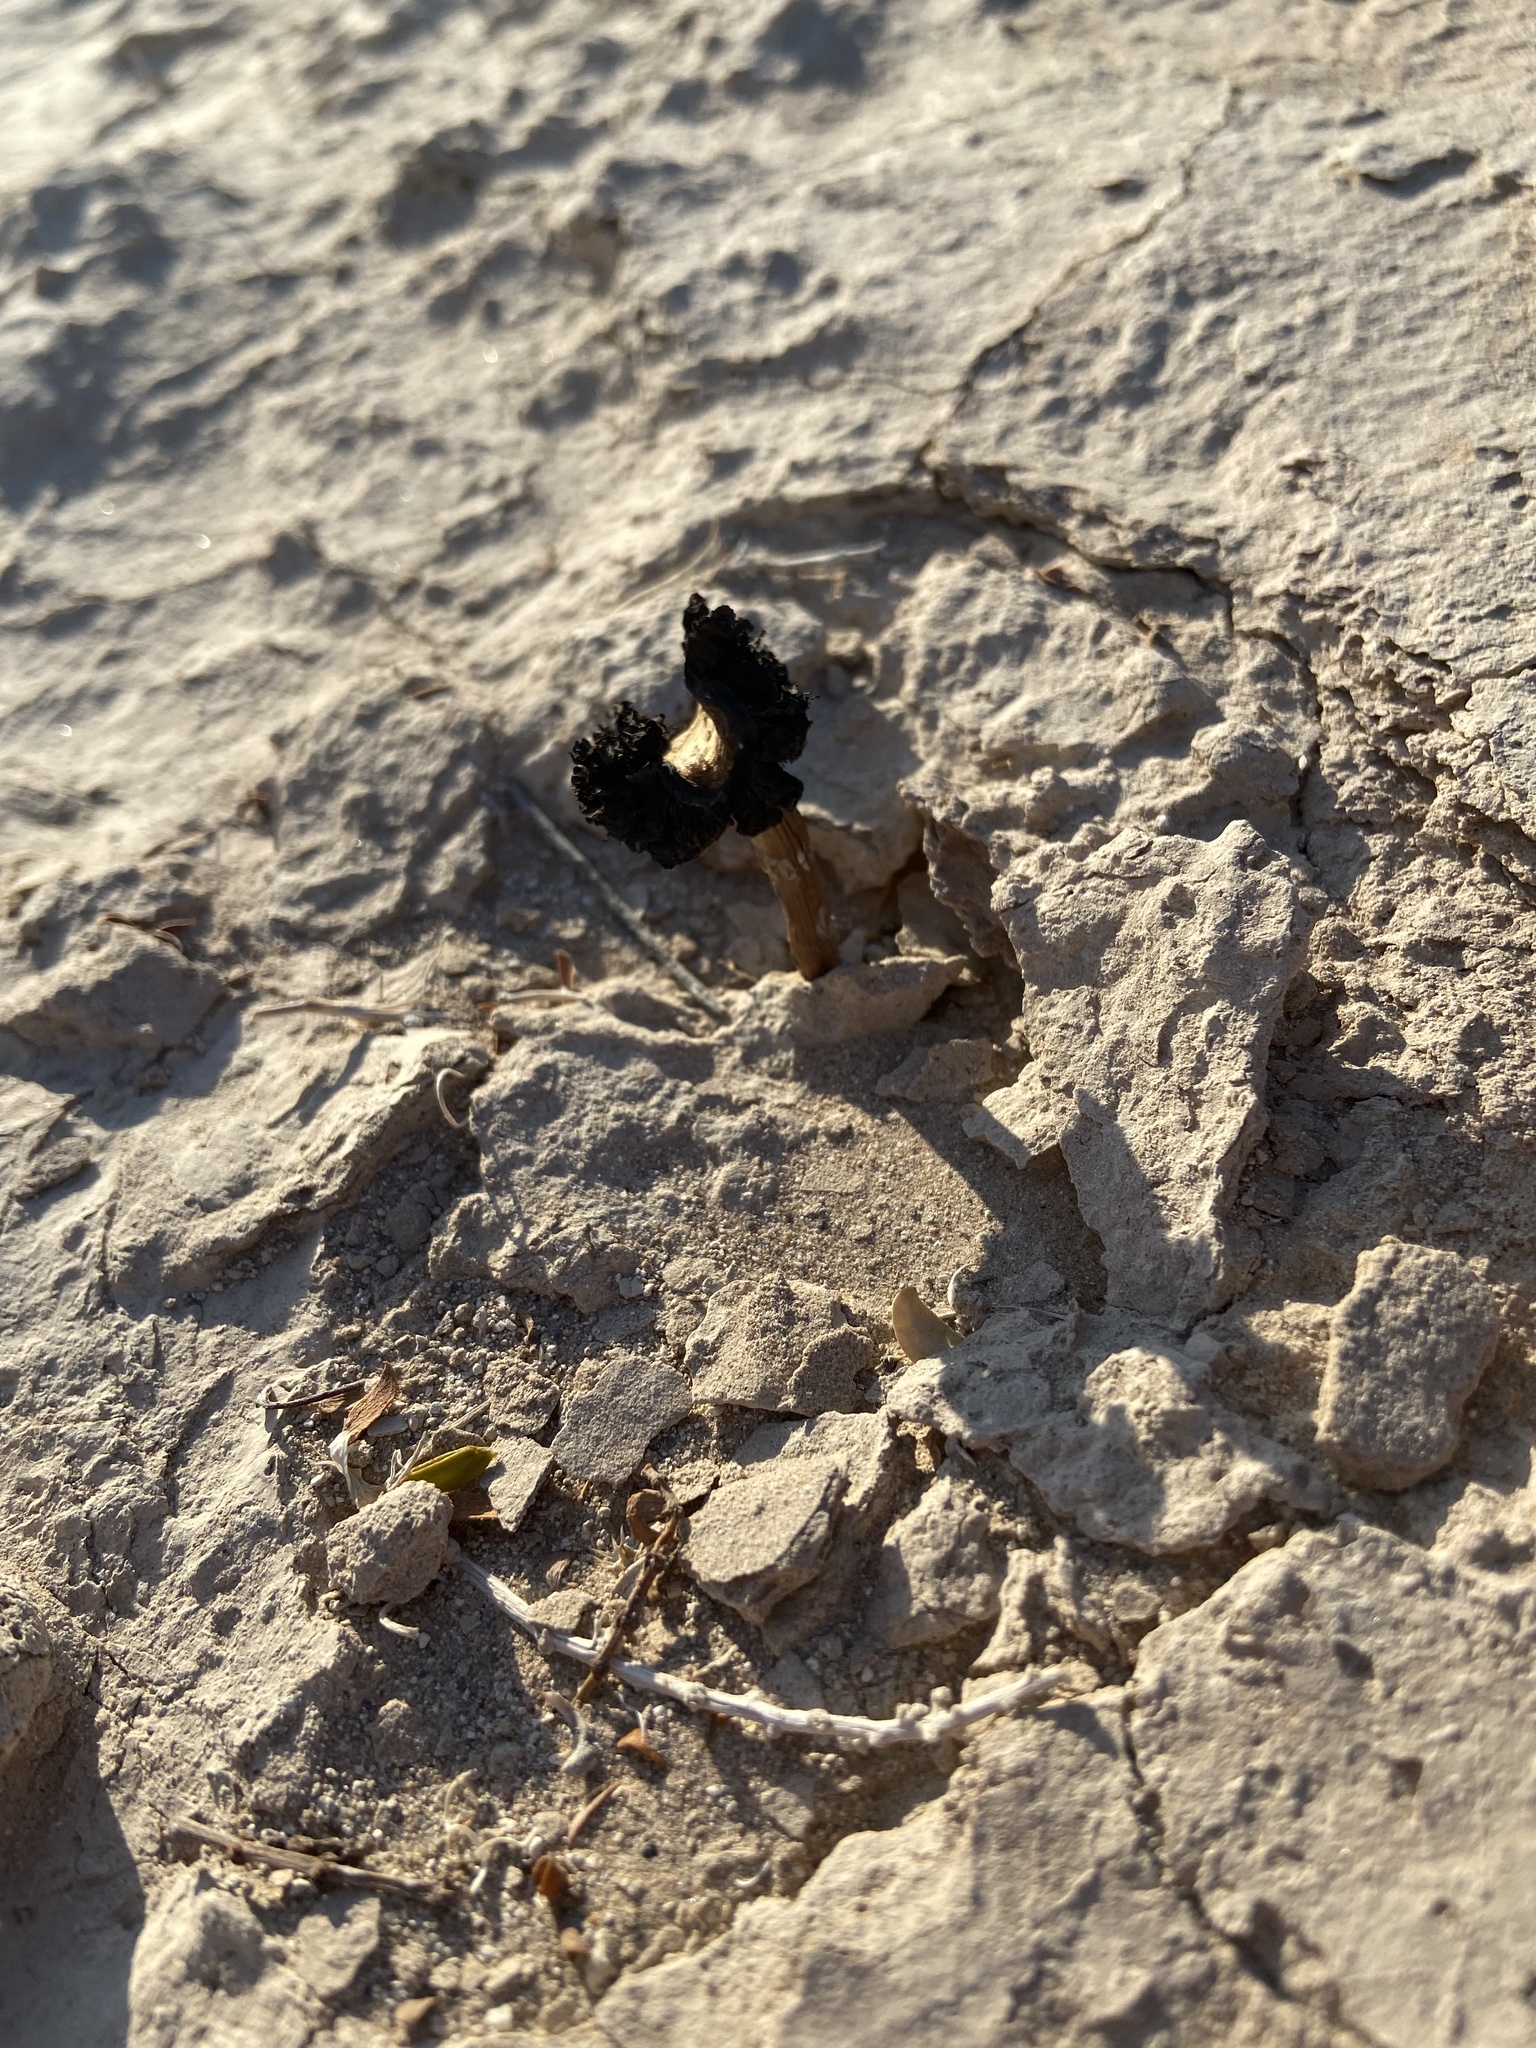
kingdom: Fungi
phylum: Basidiomycota
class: Agaricomycetes
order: Agaricales
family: Agaricaceae
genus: Montagnea
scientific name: Montagnea arenaria
